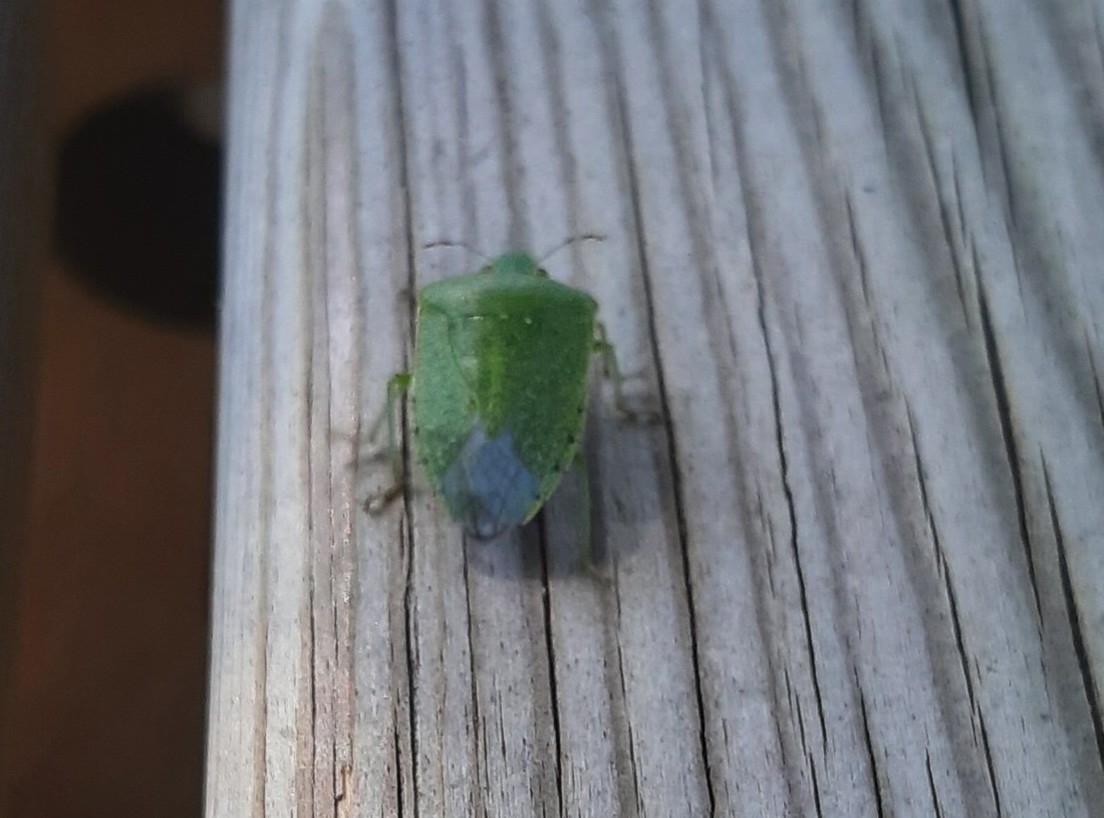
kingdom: Animalia
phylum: Arthropoda
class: Insecta
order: Hemiptera
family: Pentatomidae
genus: Nezara
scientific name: Nezara viridula
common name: Southern green stink bug
